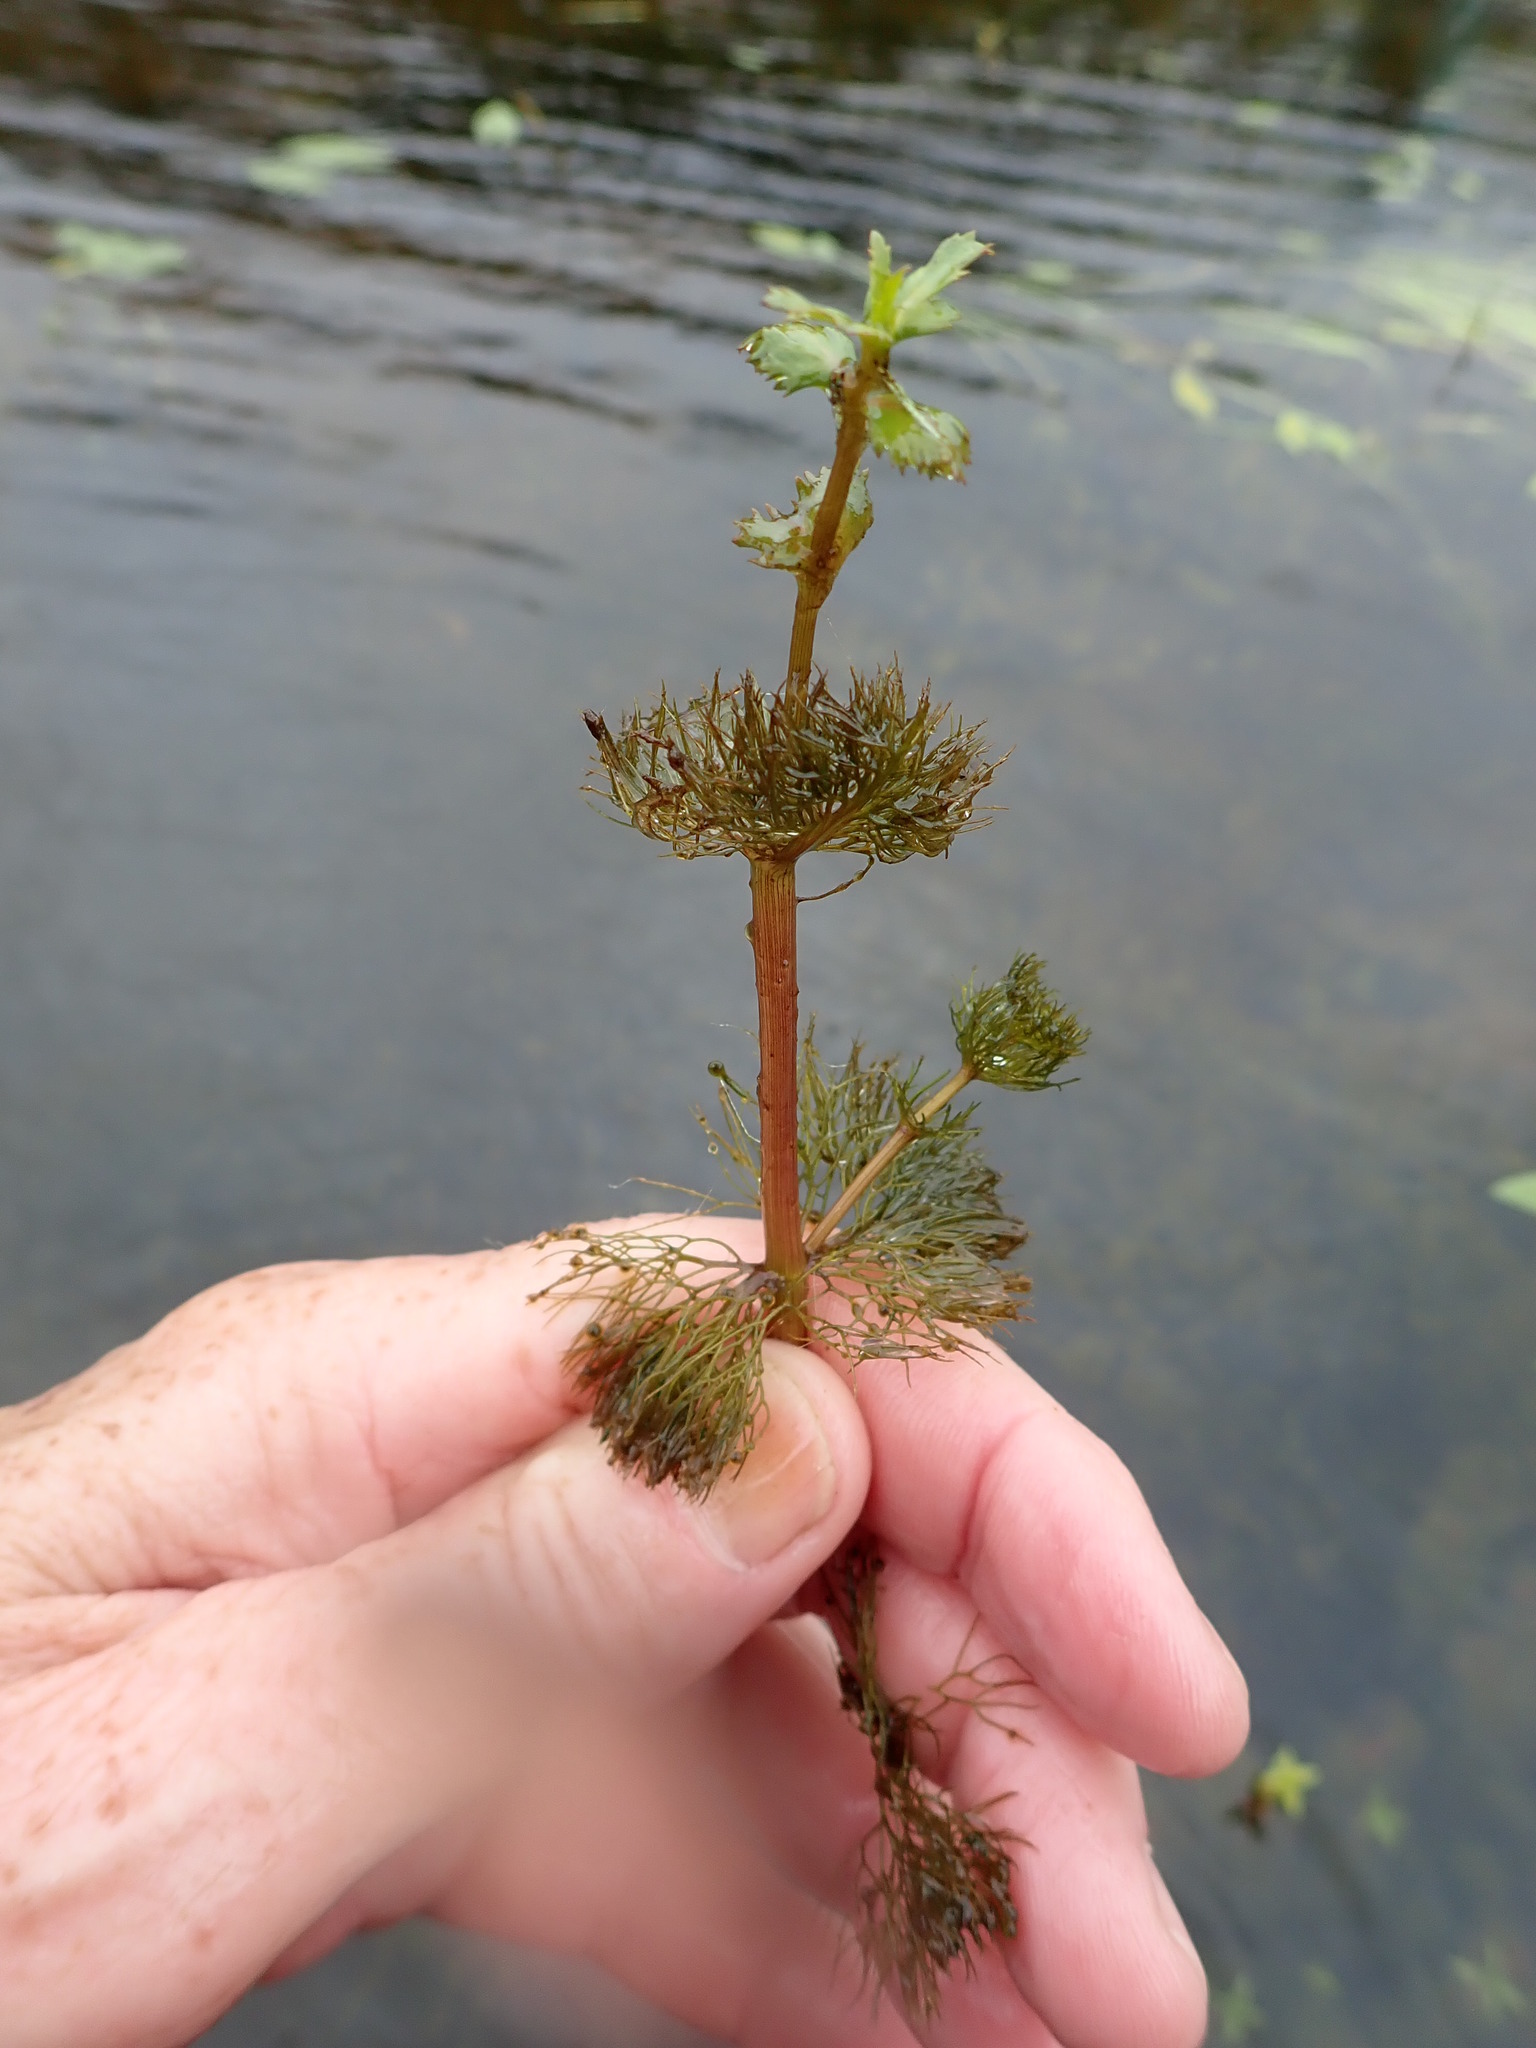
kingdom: Plantae
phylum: Tracheophyta
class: Magnoliopsida
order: Asterales
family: Asteraceae
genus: Bidens
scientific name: Bidens beckii
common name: Beck's beggarticks
